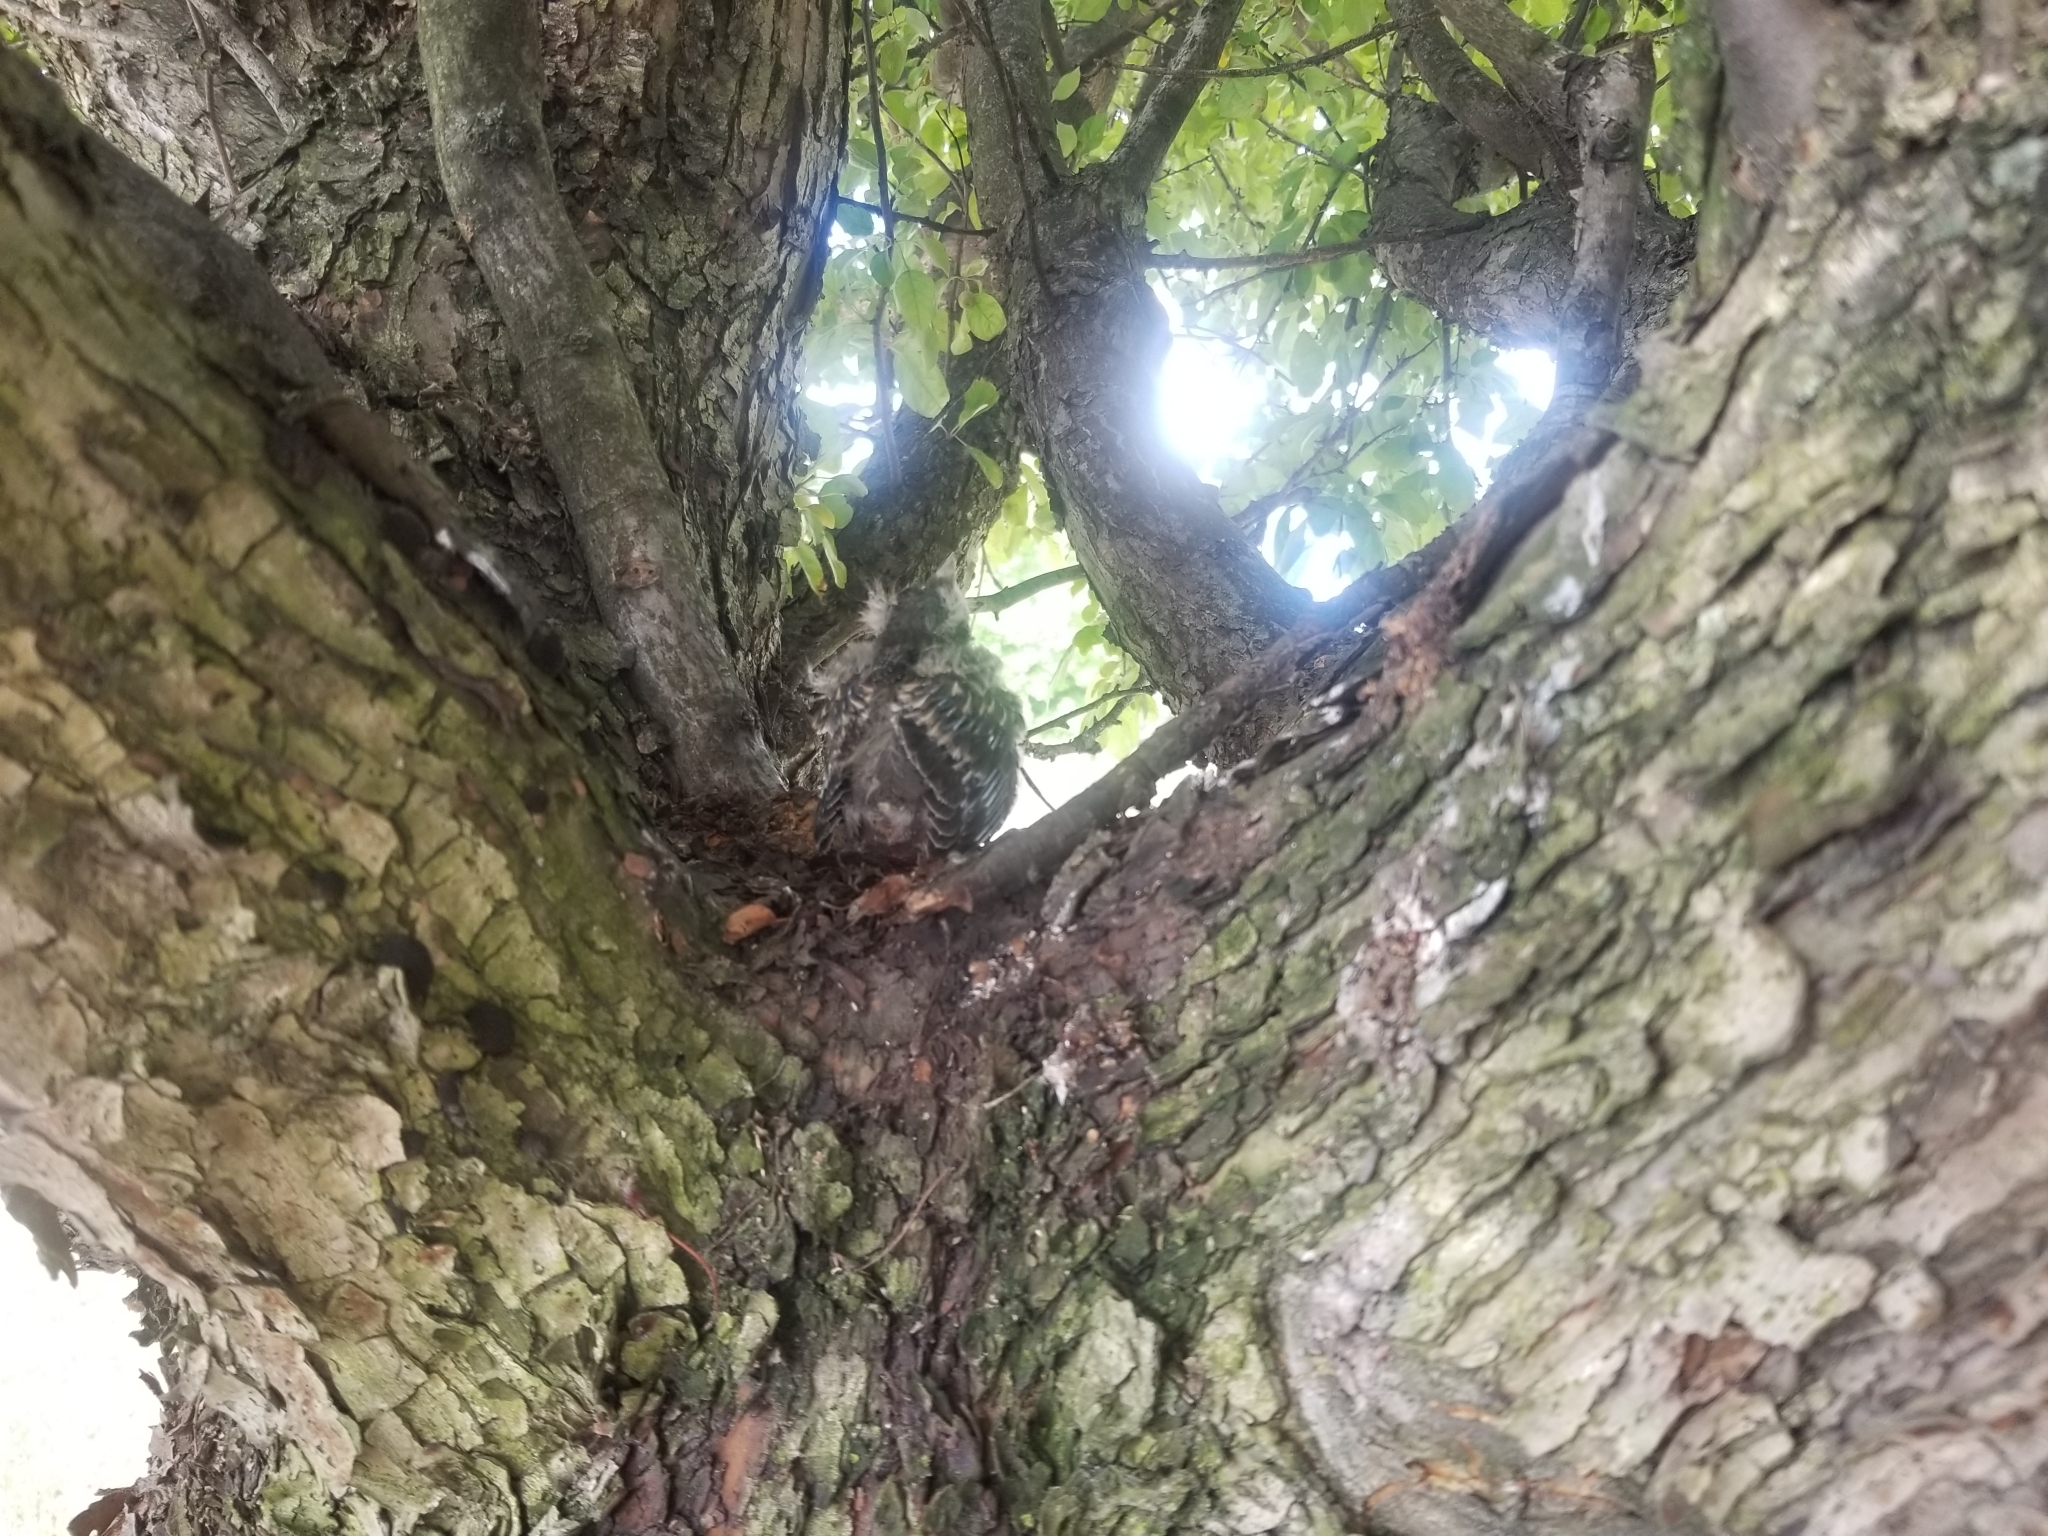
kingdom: Animalia
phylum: Chordata
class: Aves
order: Passeriformes
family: Turdidae
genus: Turdus
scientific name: Turdus migratorius
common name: American robin
